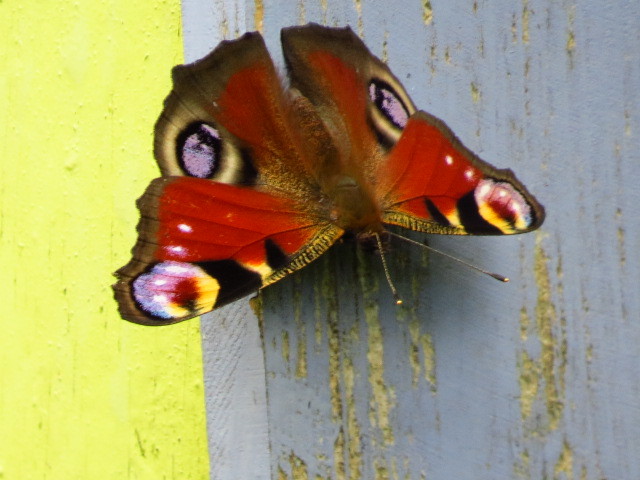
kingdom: Animalia
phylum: Arthropoda
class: Insecta
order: Lepidoptera
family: Nymphalidae
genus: Aglais
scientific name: Aglais io
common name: Peacock
